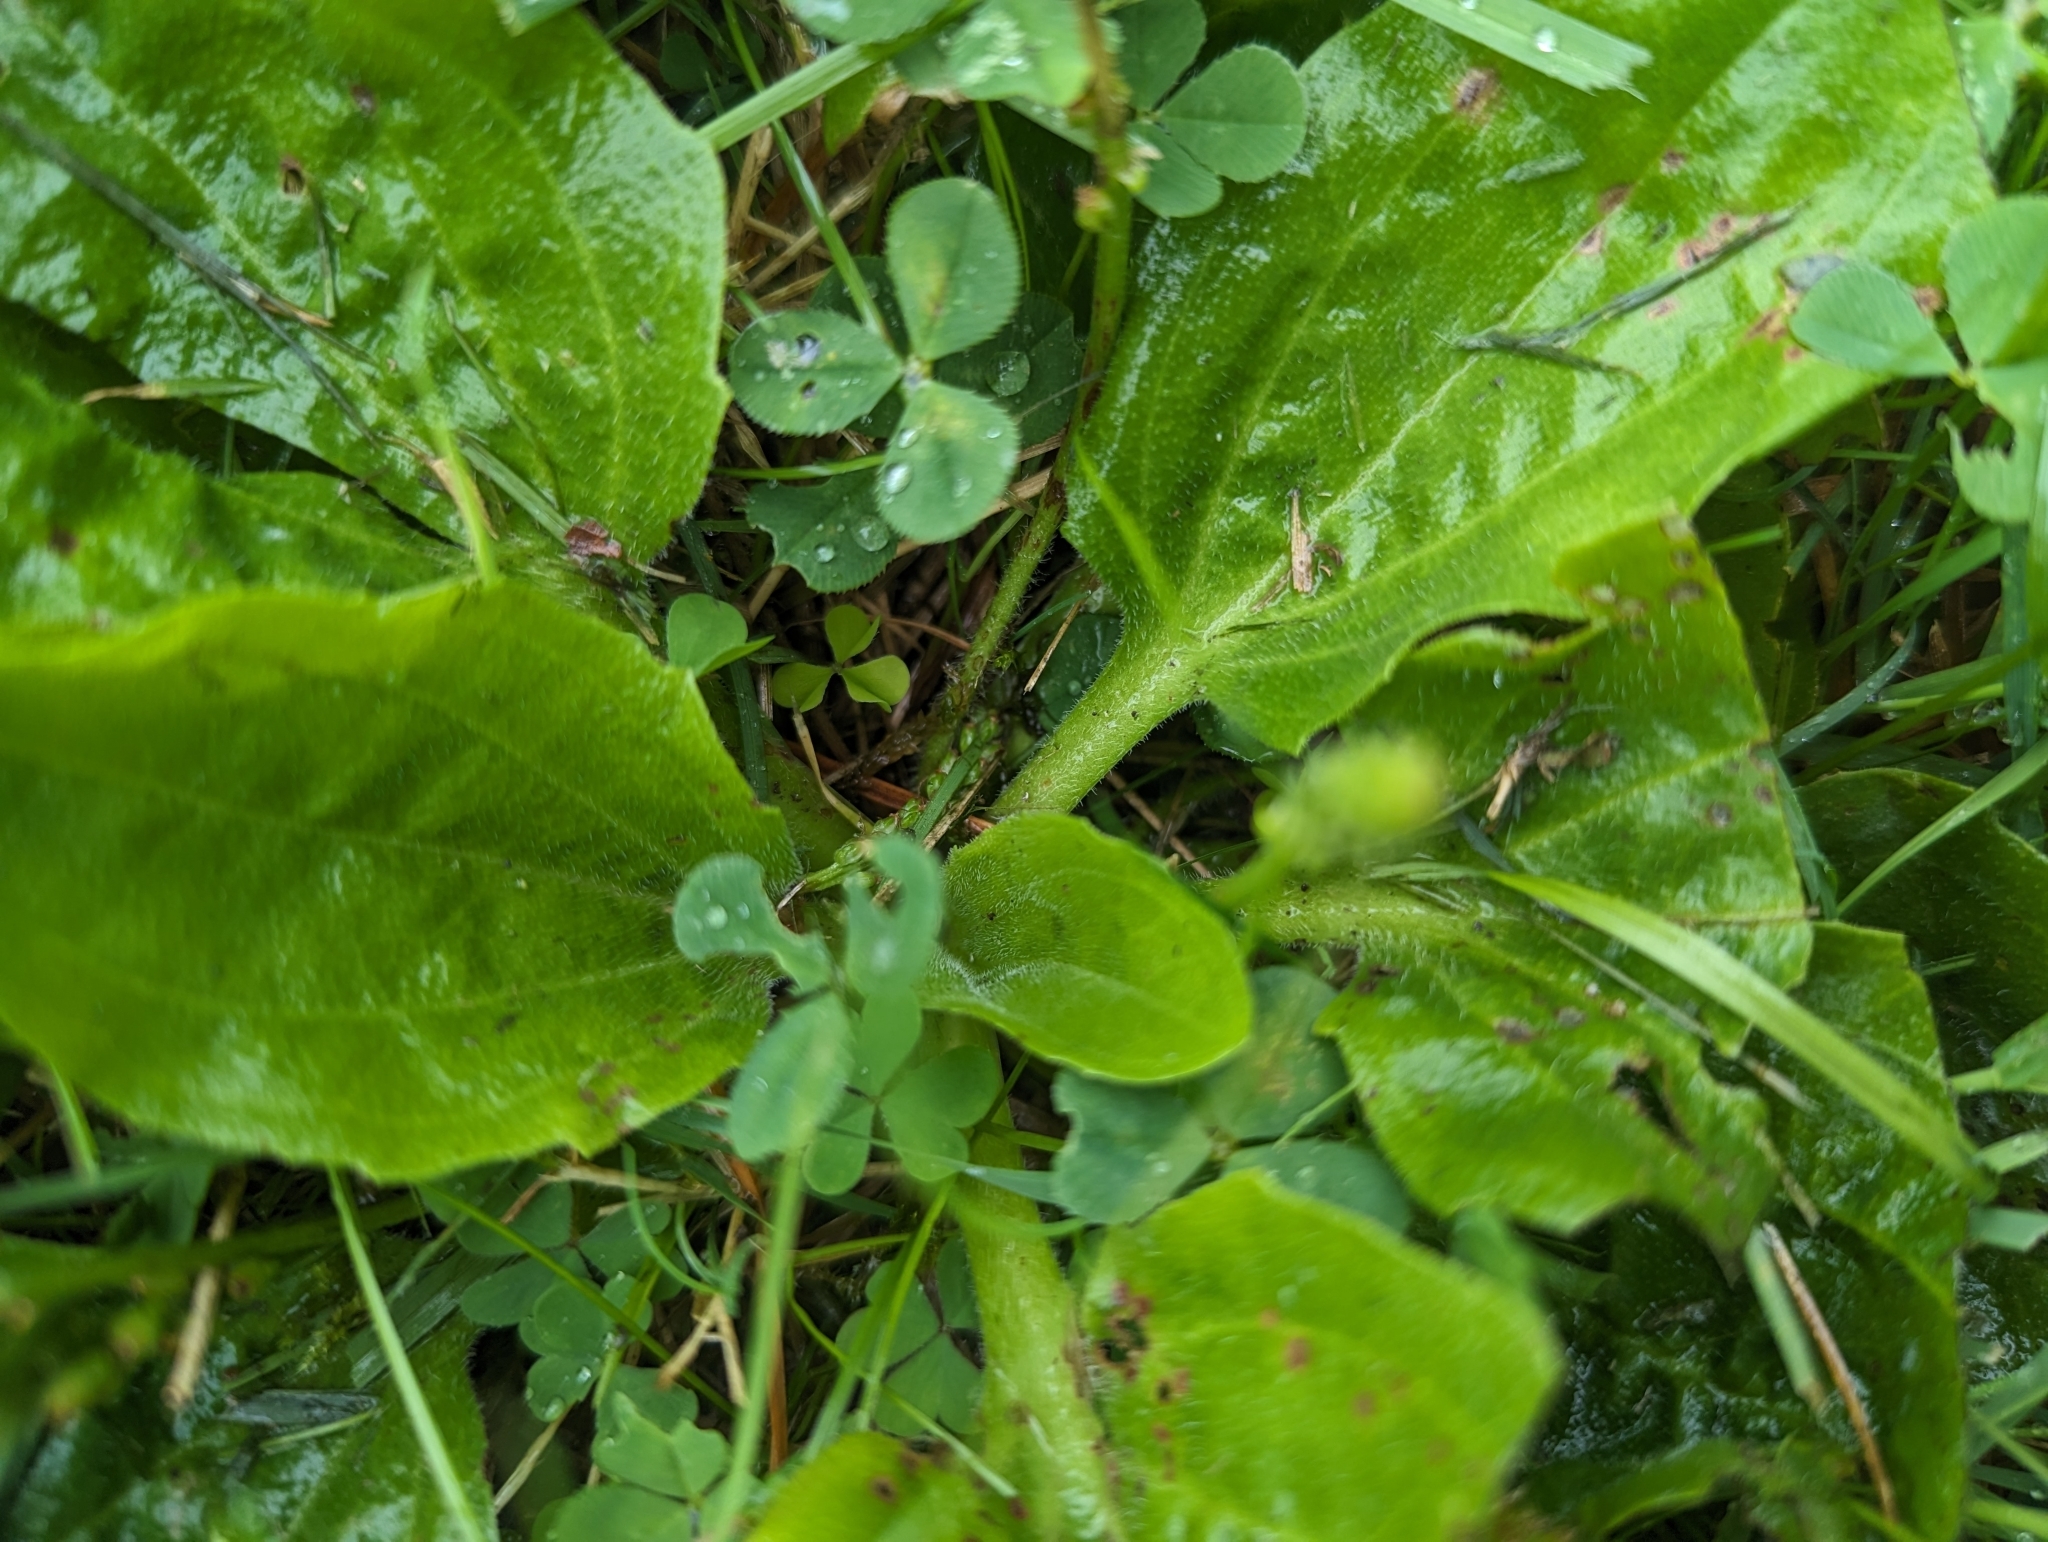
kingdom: Plantae
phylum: Tracheophyta
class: Magnoliopsida
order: Lamiales
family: Plantaginaceae
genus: Plantago
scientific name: Plantago major
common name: Common plantain
